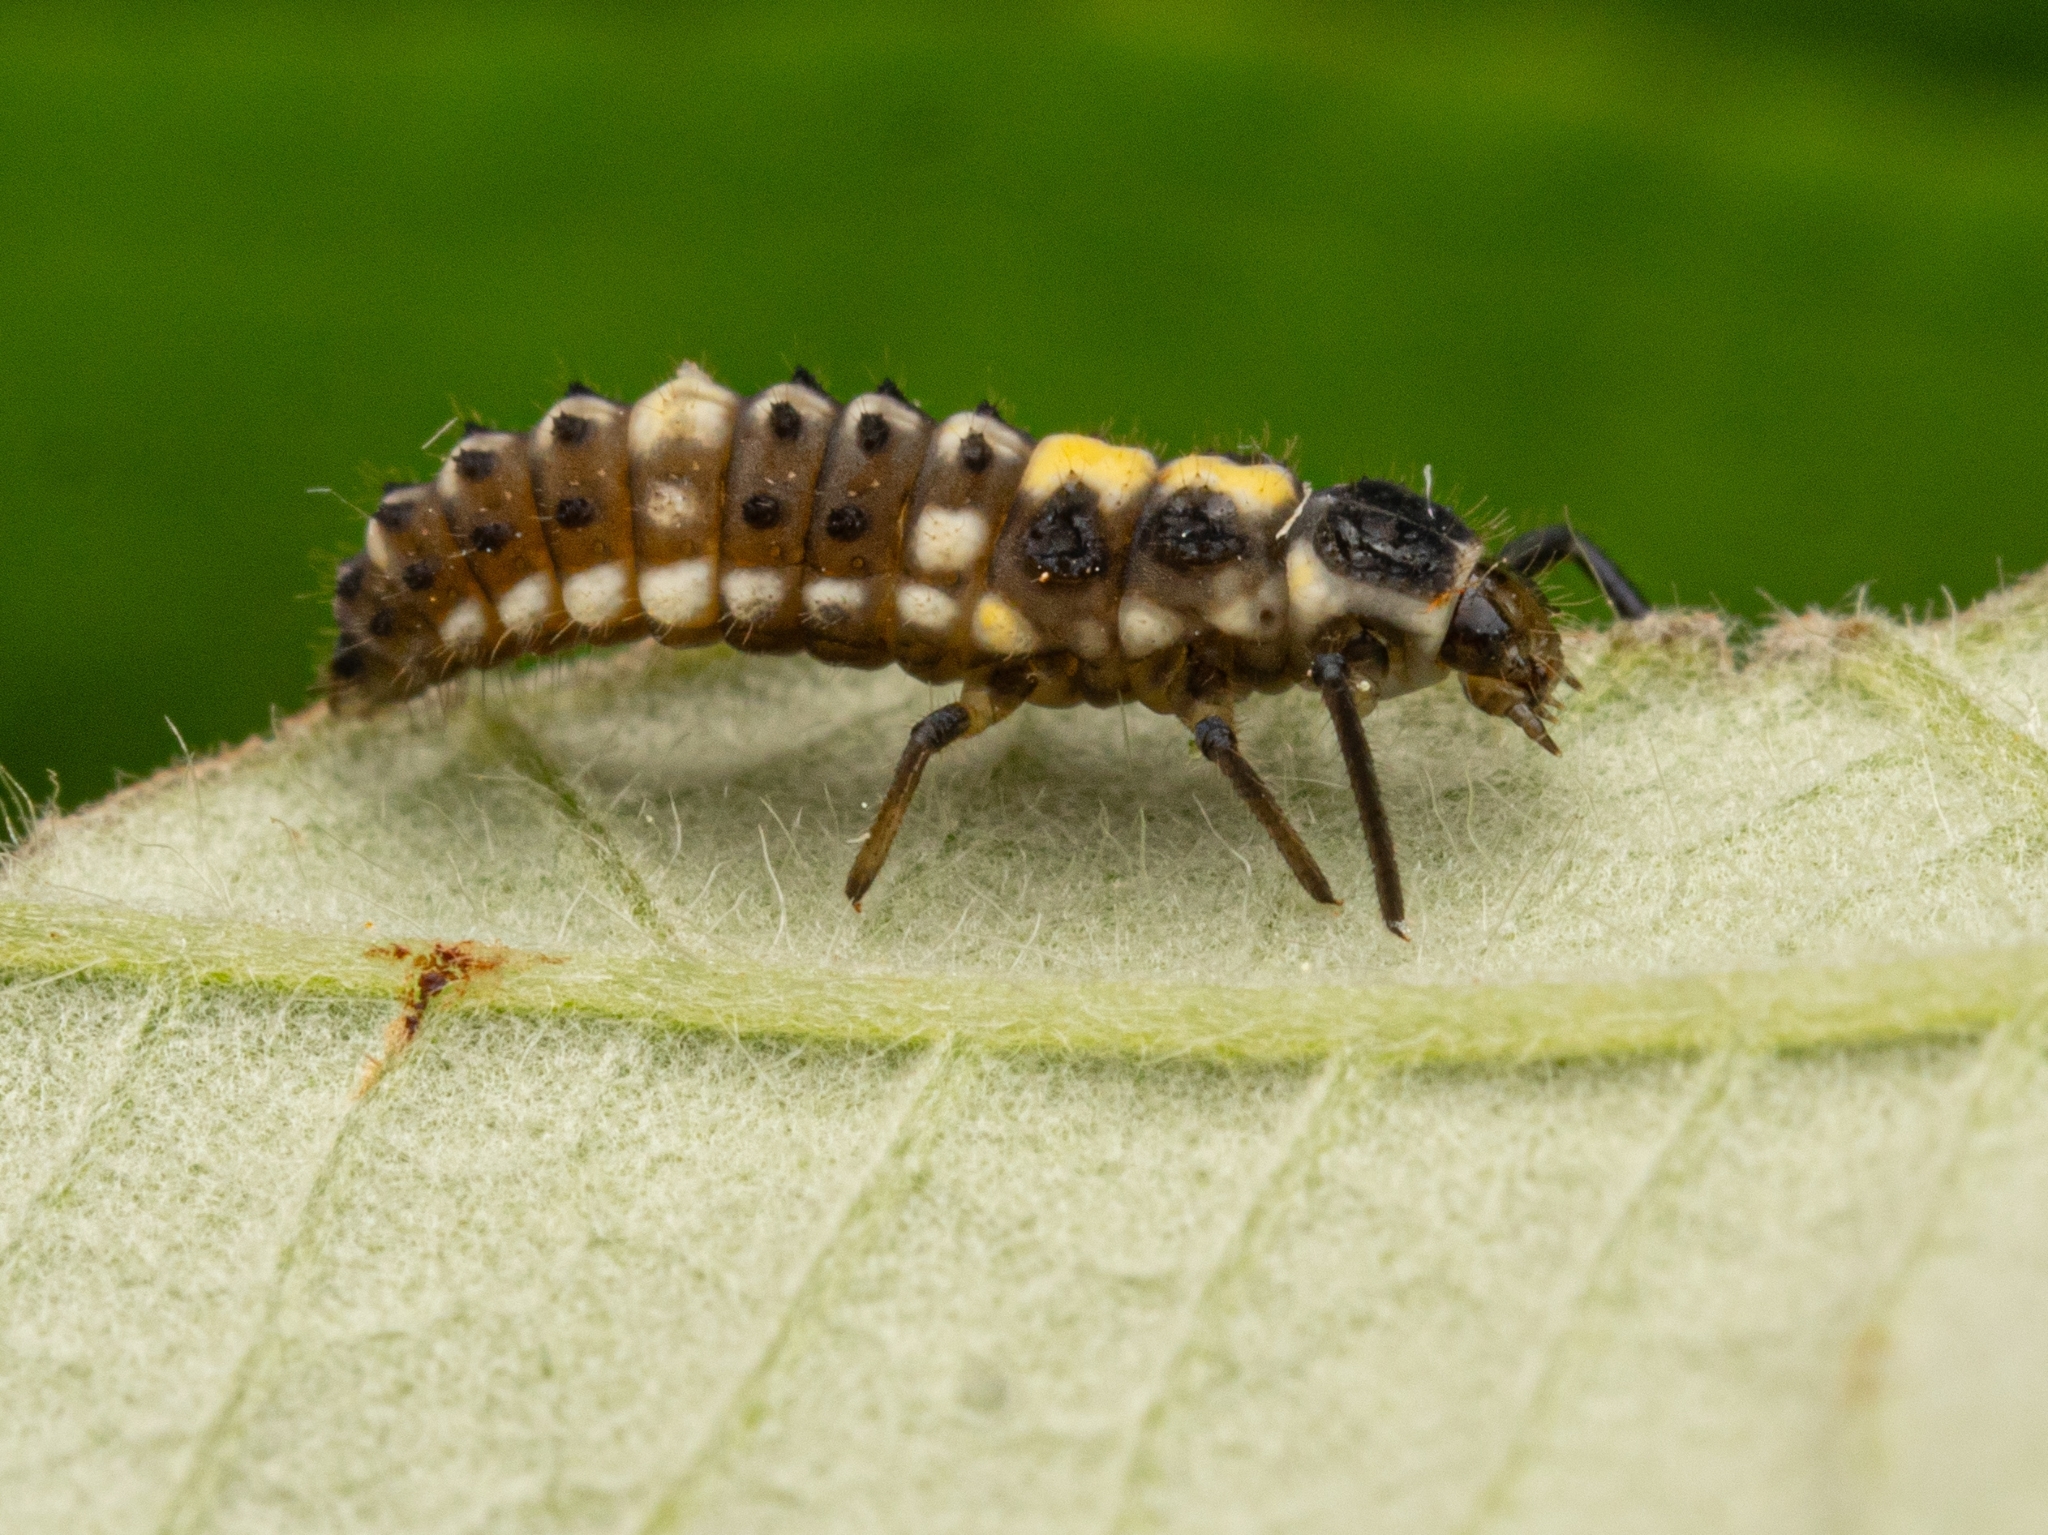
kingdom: Animalia
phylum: Arthropoda
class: Insecta
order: Coleoptera
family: Coccinellidae
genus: Propylaea
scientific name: Propylaea quatuordecimpunctata
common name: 14-spotted ladybird beetle
